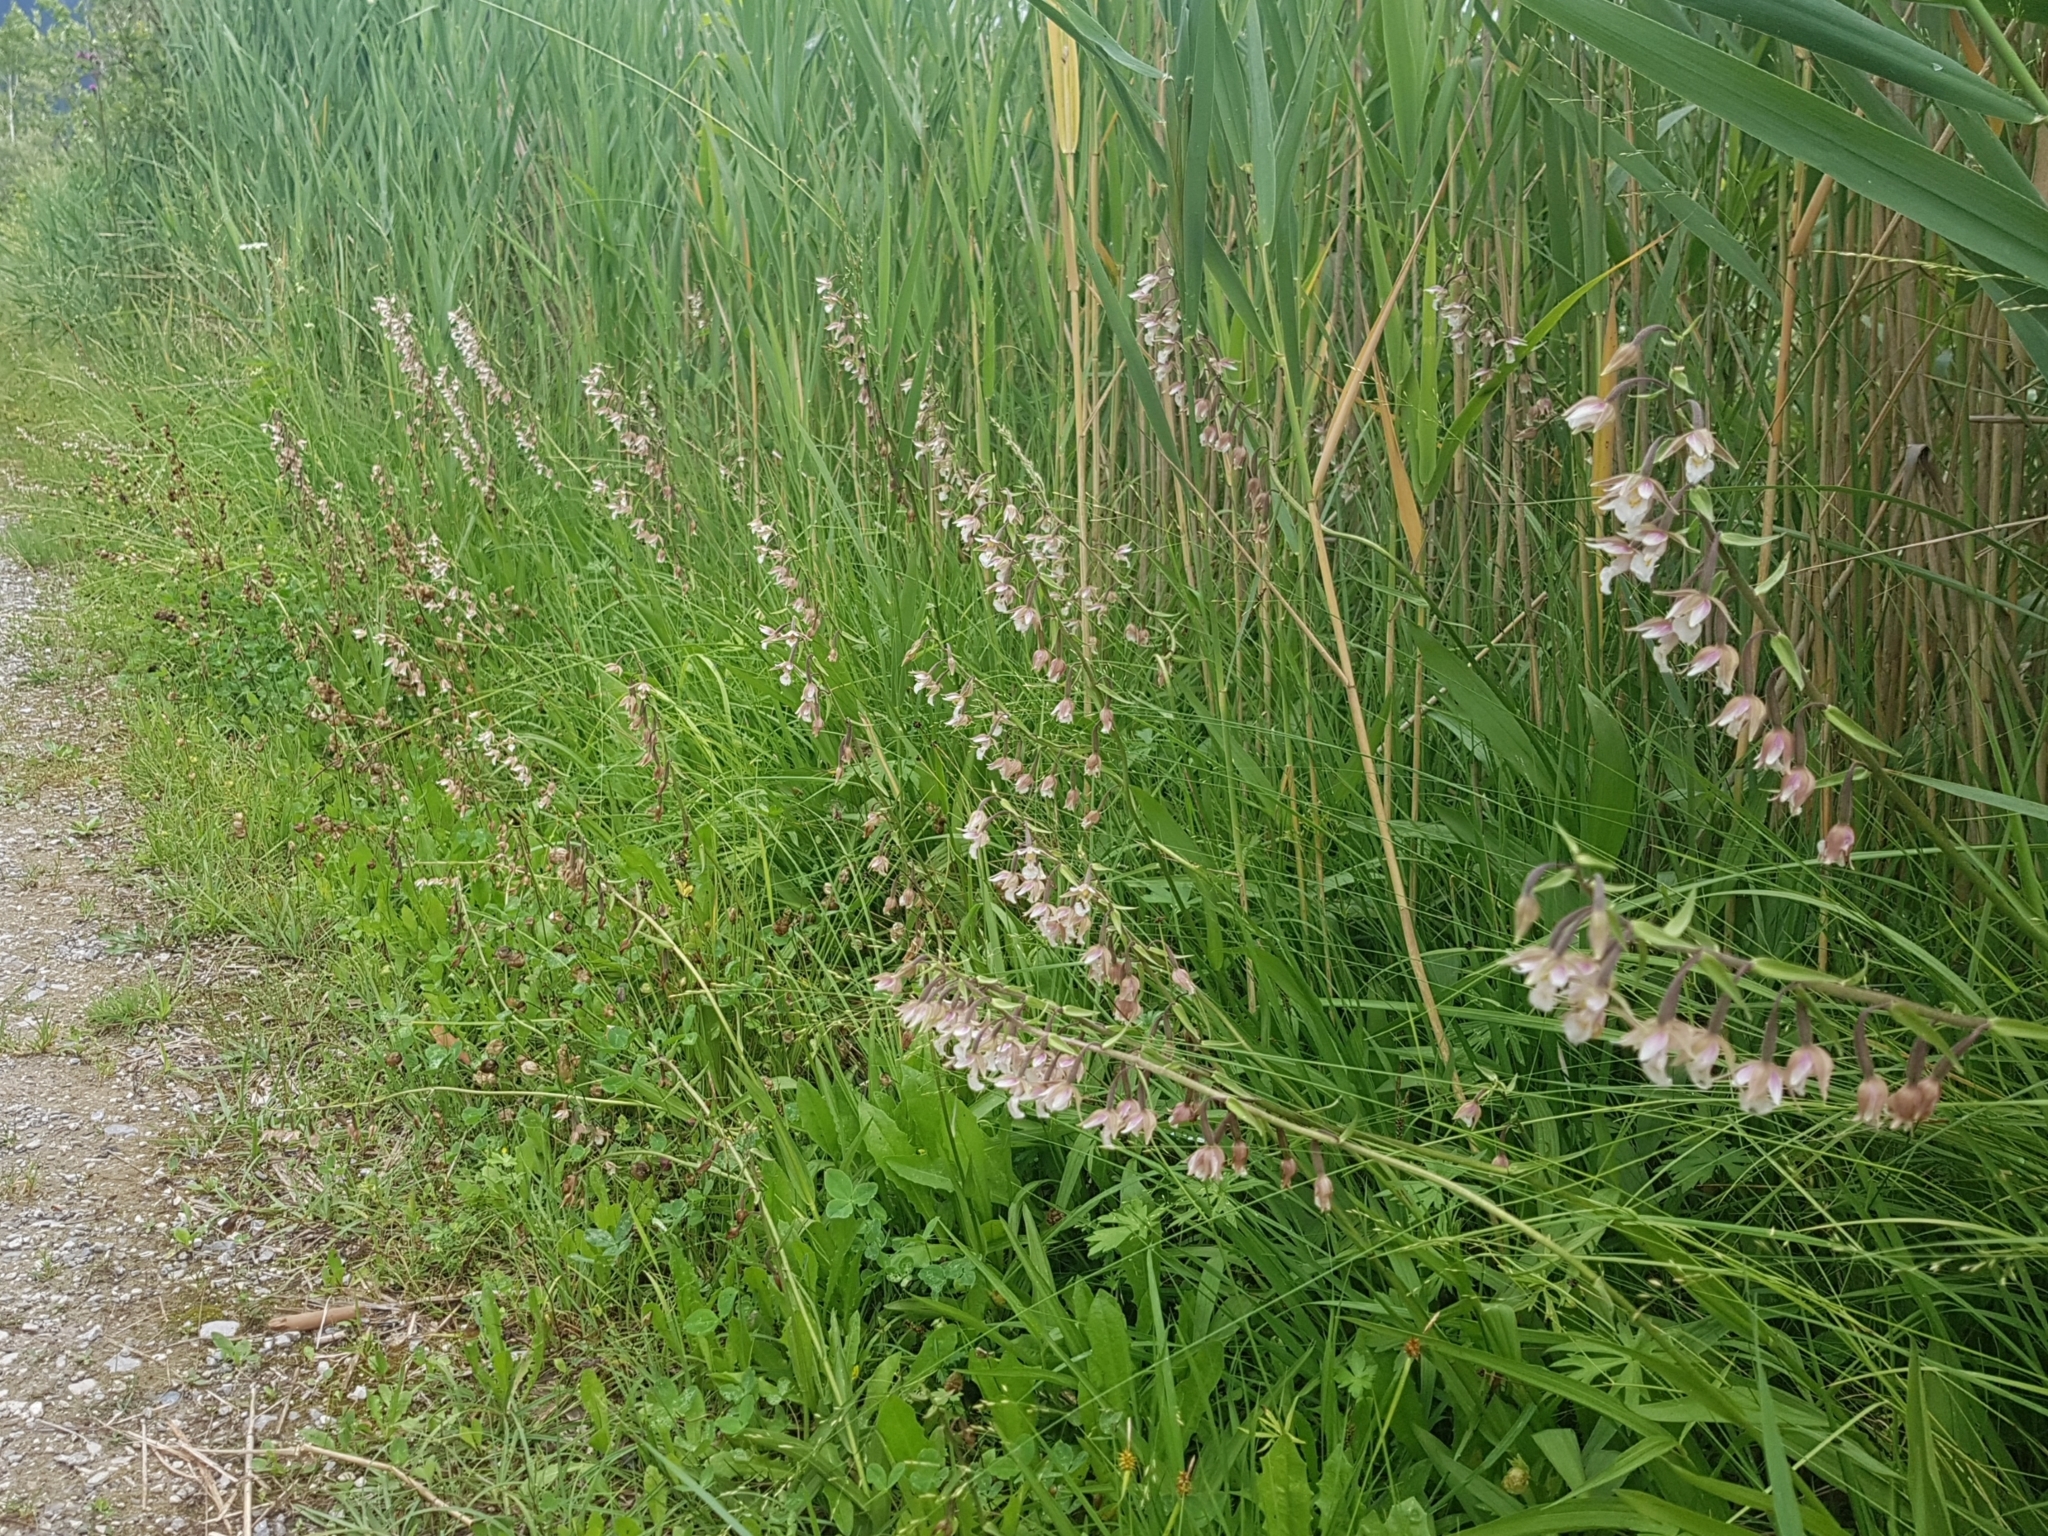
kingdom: Plantae
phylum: Tracheophyta
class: Liliopsida
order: Asparagales
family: Orchidaceae
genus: Epipactis
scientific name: Epipactis palustris
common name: Marsh helleborine
